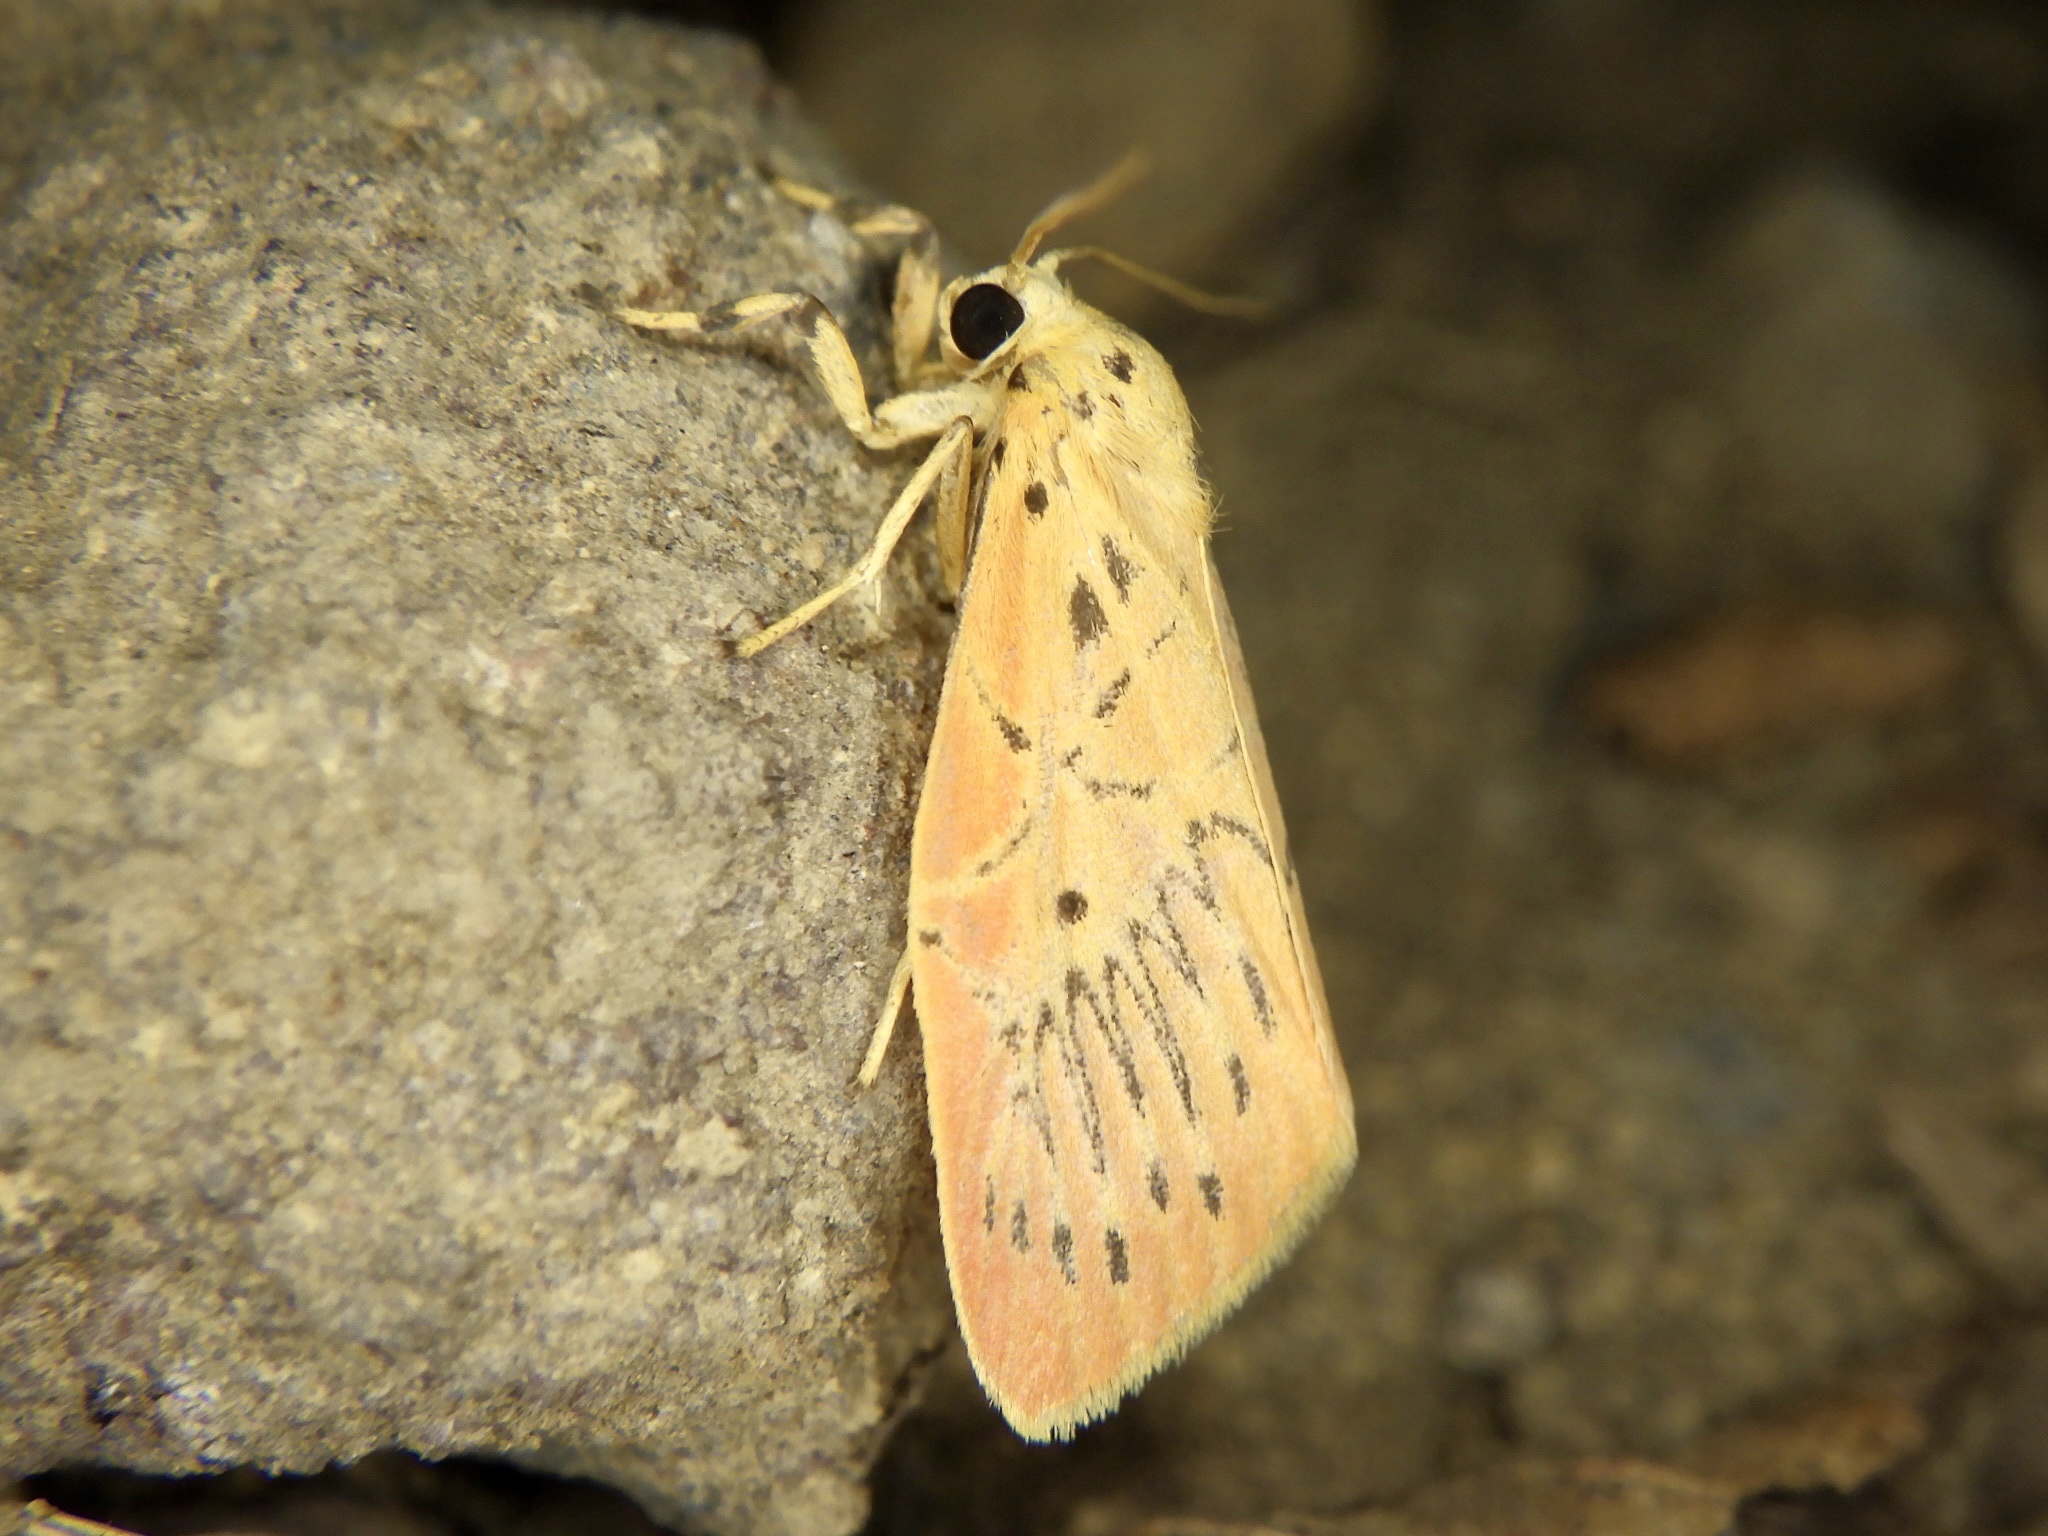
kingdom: Animalia
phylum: Arthropoda
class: Insecta
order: Lepidoptera
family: Erebidae
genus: Aberrasine
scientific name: Aberrasine aberrans
